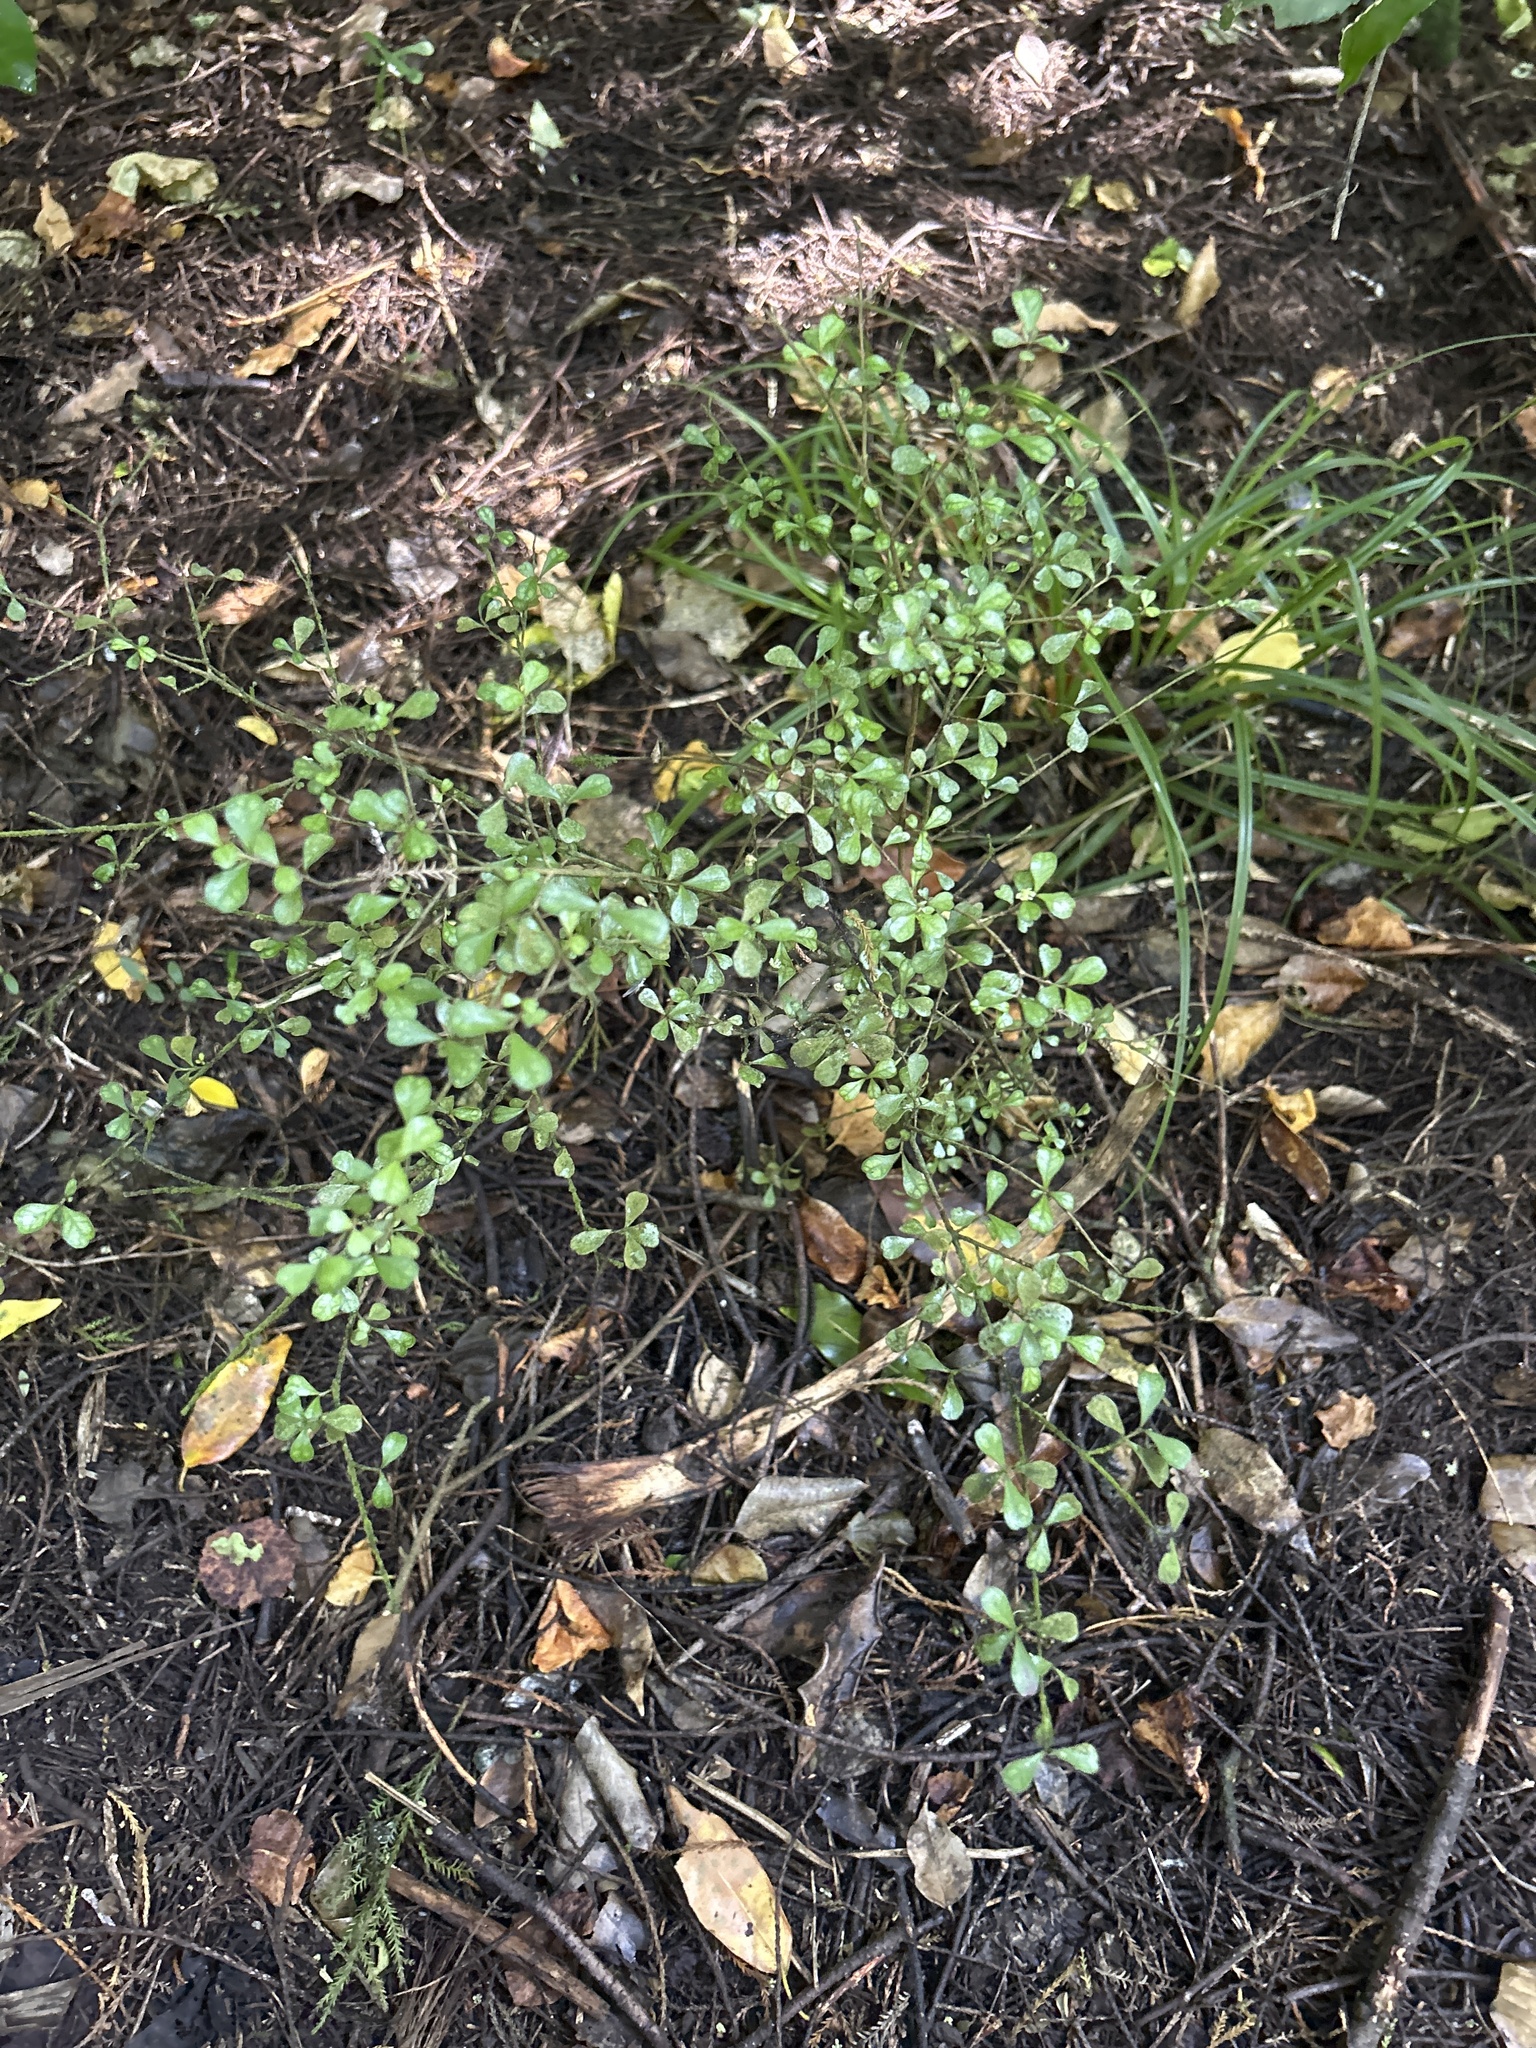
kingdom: Plantae
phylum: Tracheophyta
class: Magnoliopsida
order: Myrtales
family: Myrtaceae
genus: Lophomyrtus
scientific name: Lophomyrtus obcordata
